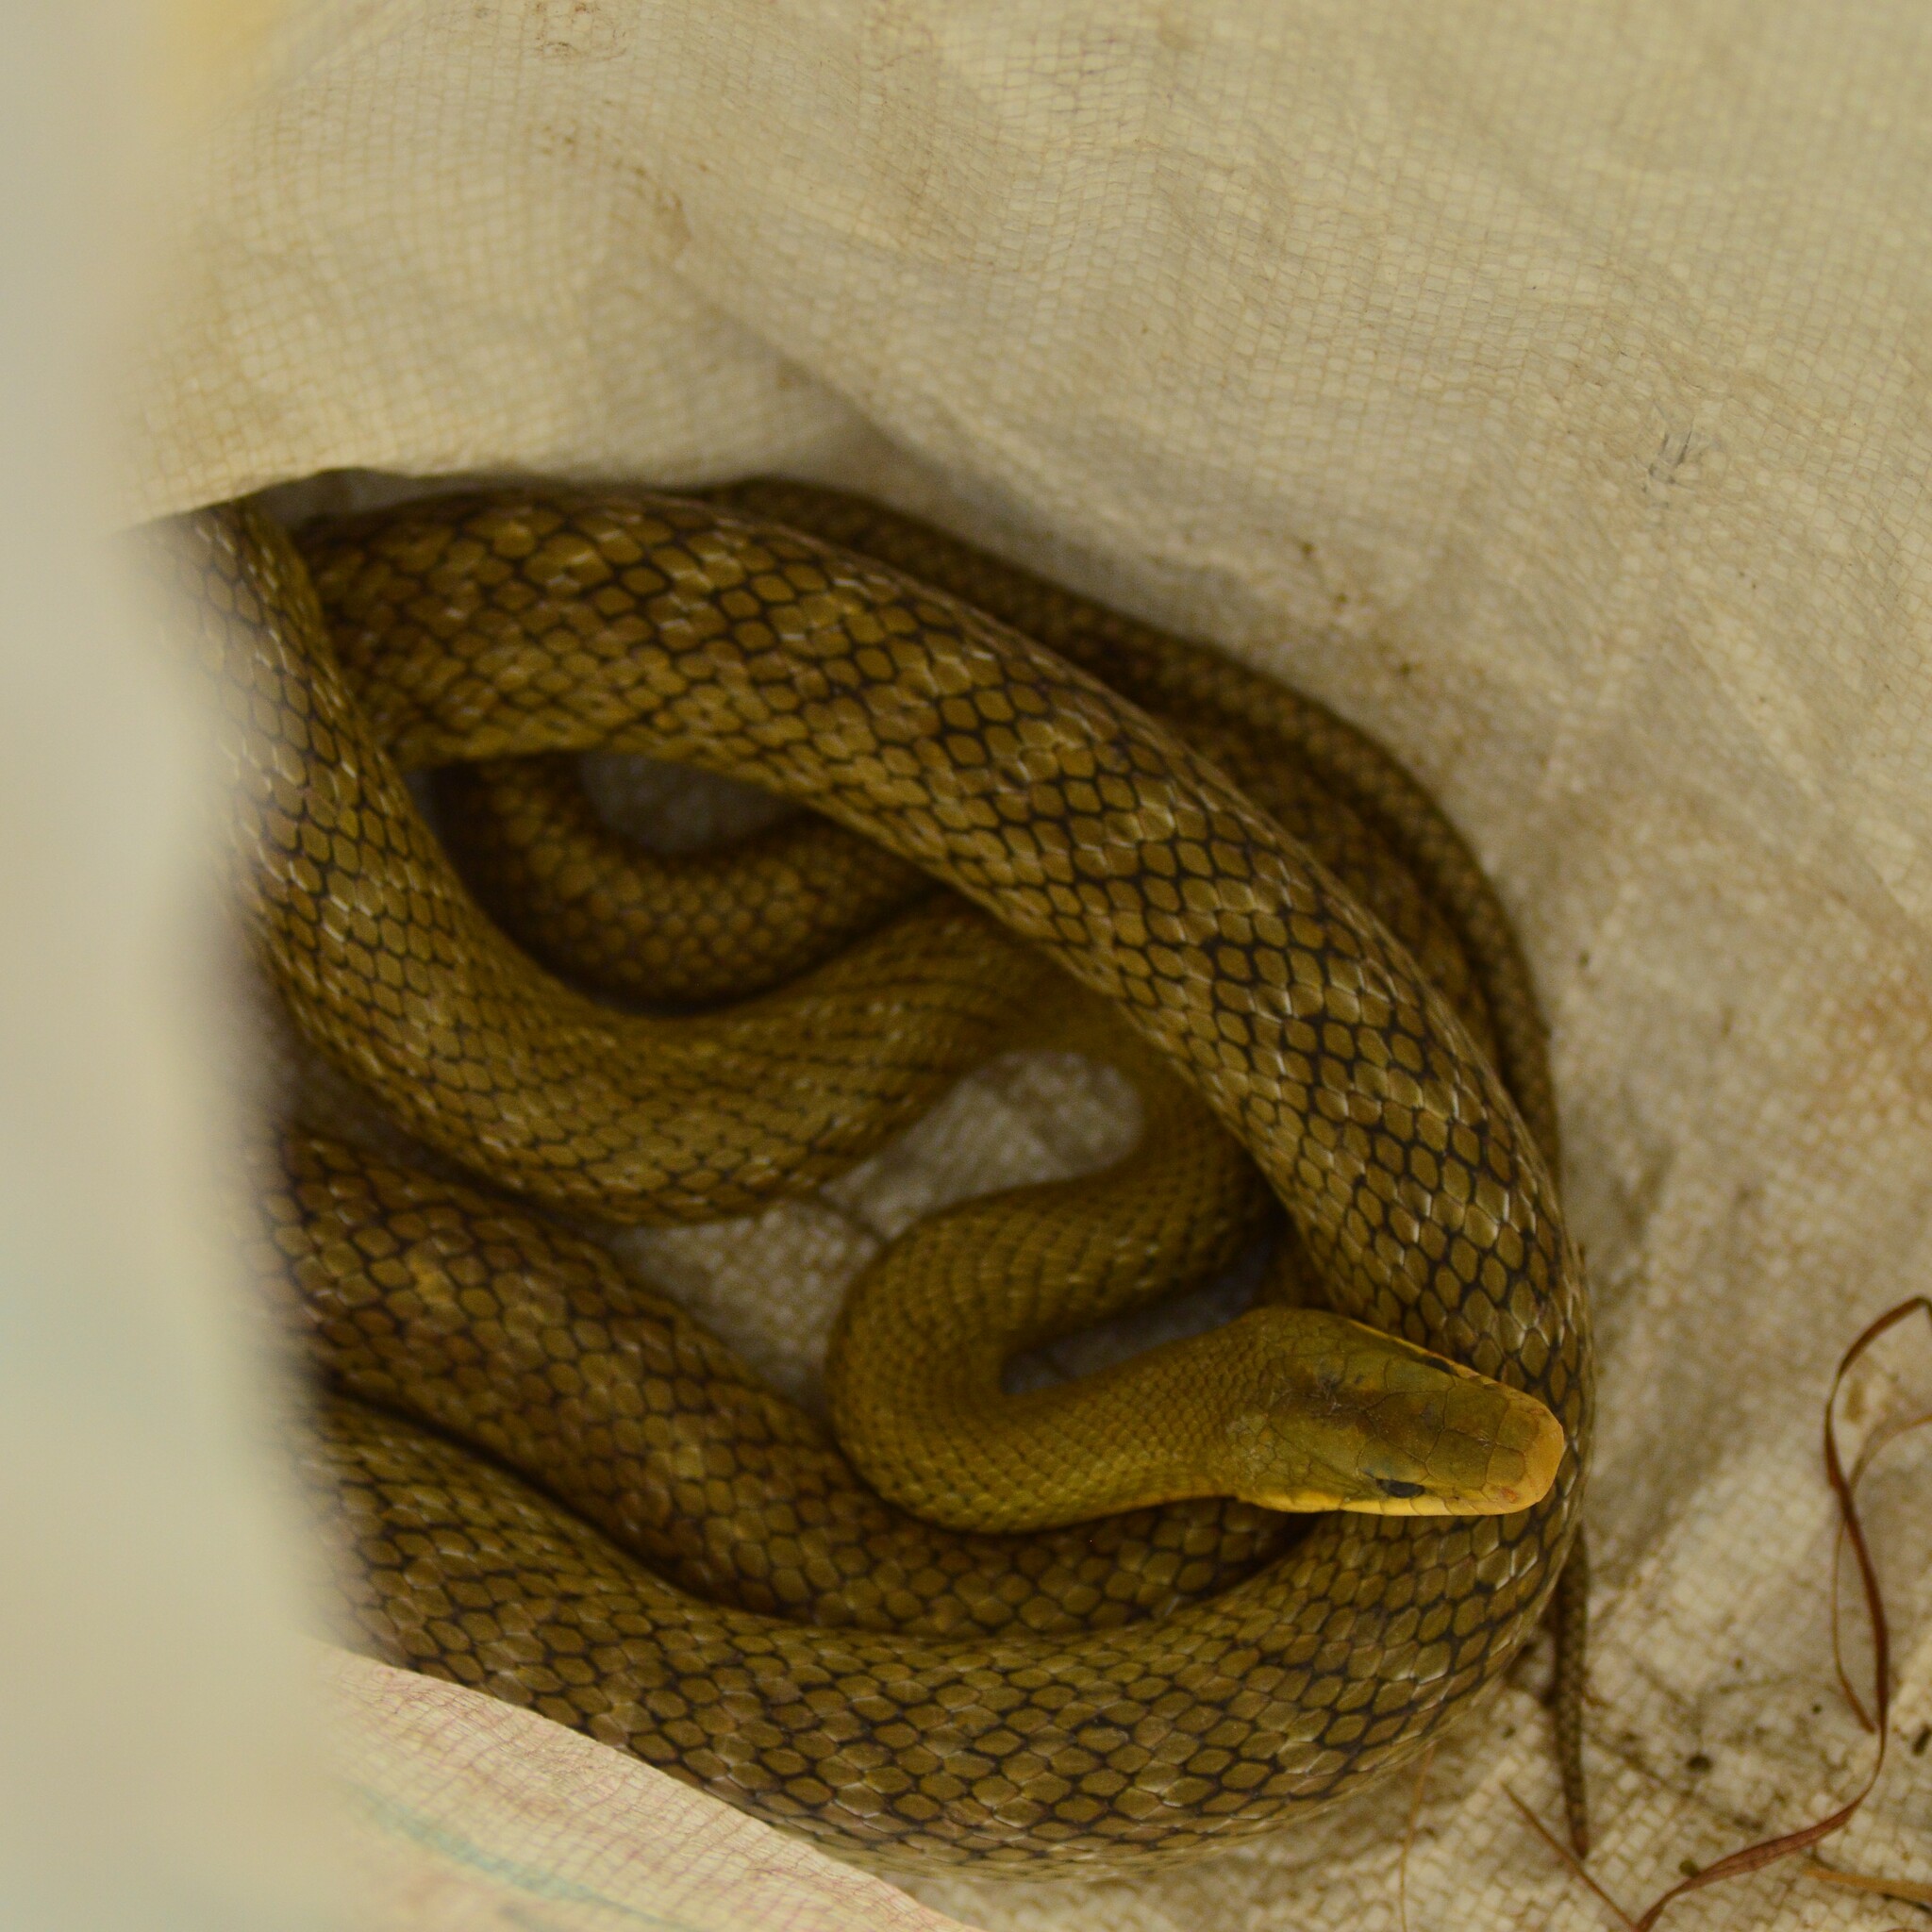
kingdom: Animalia
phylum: Chordata
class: Squamata
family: Colubridae
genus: Elaphe
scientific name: Elaphe hodgsoni
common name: English common name not available
